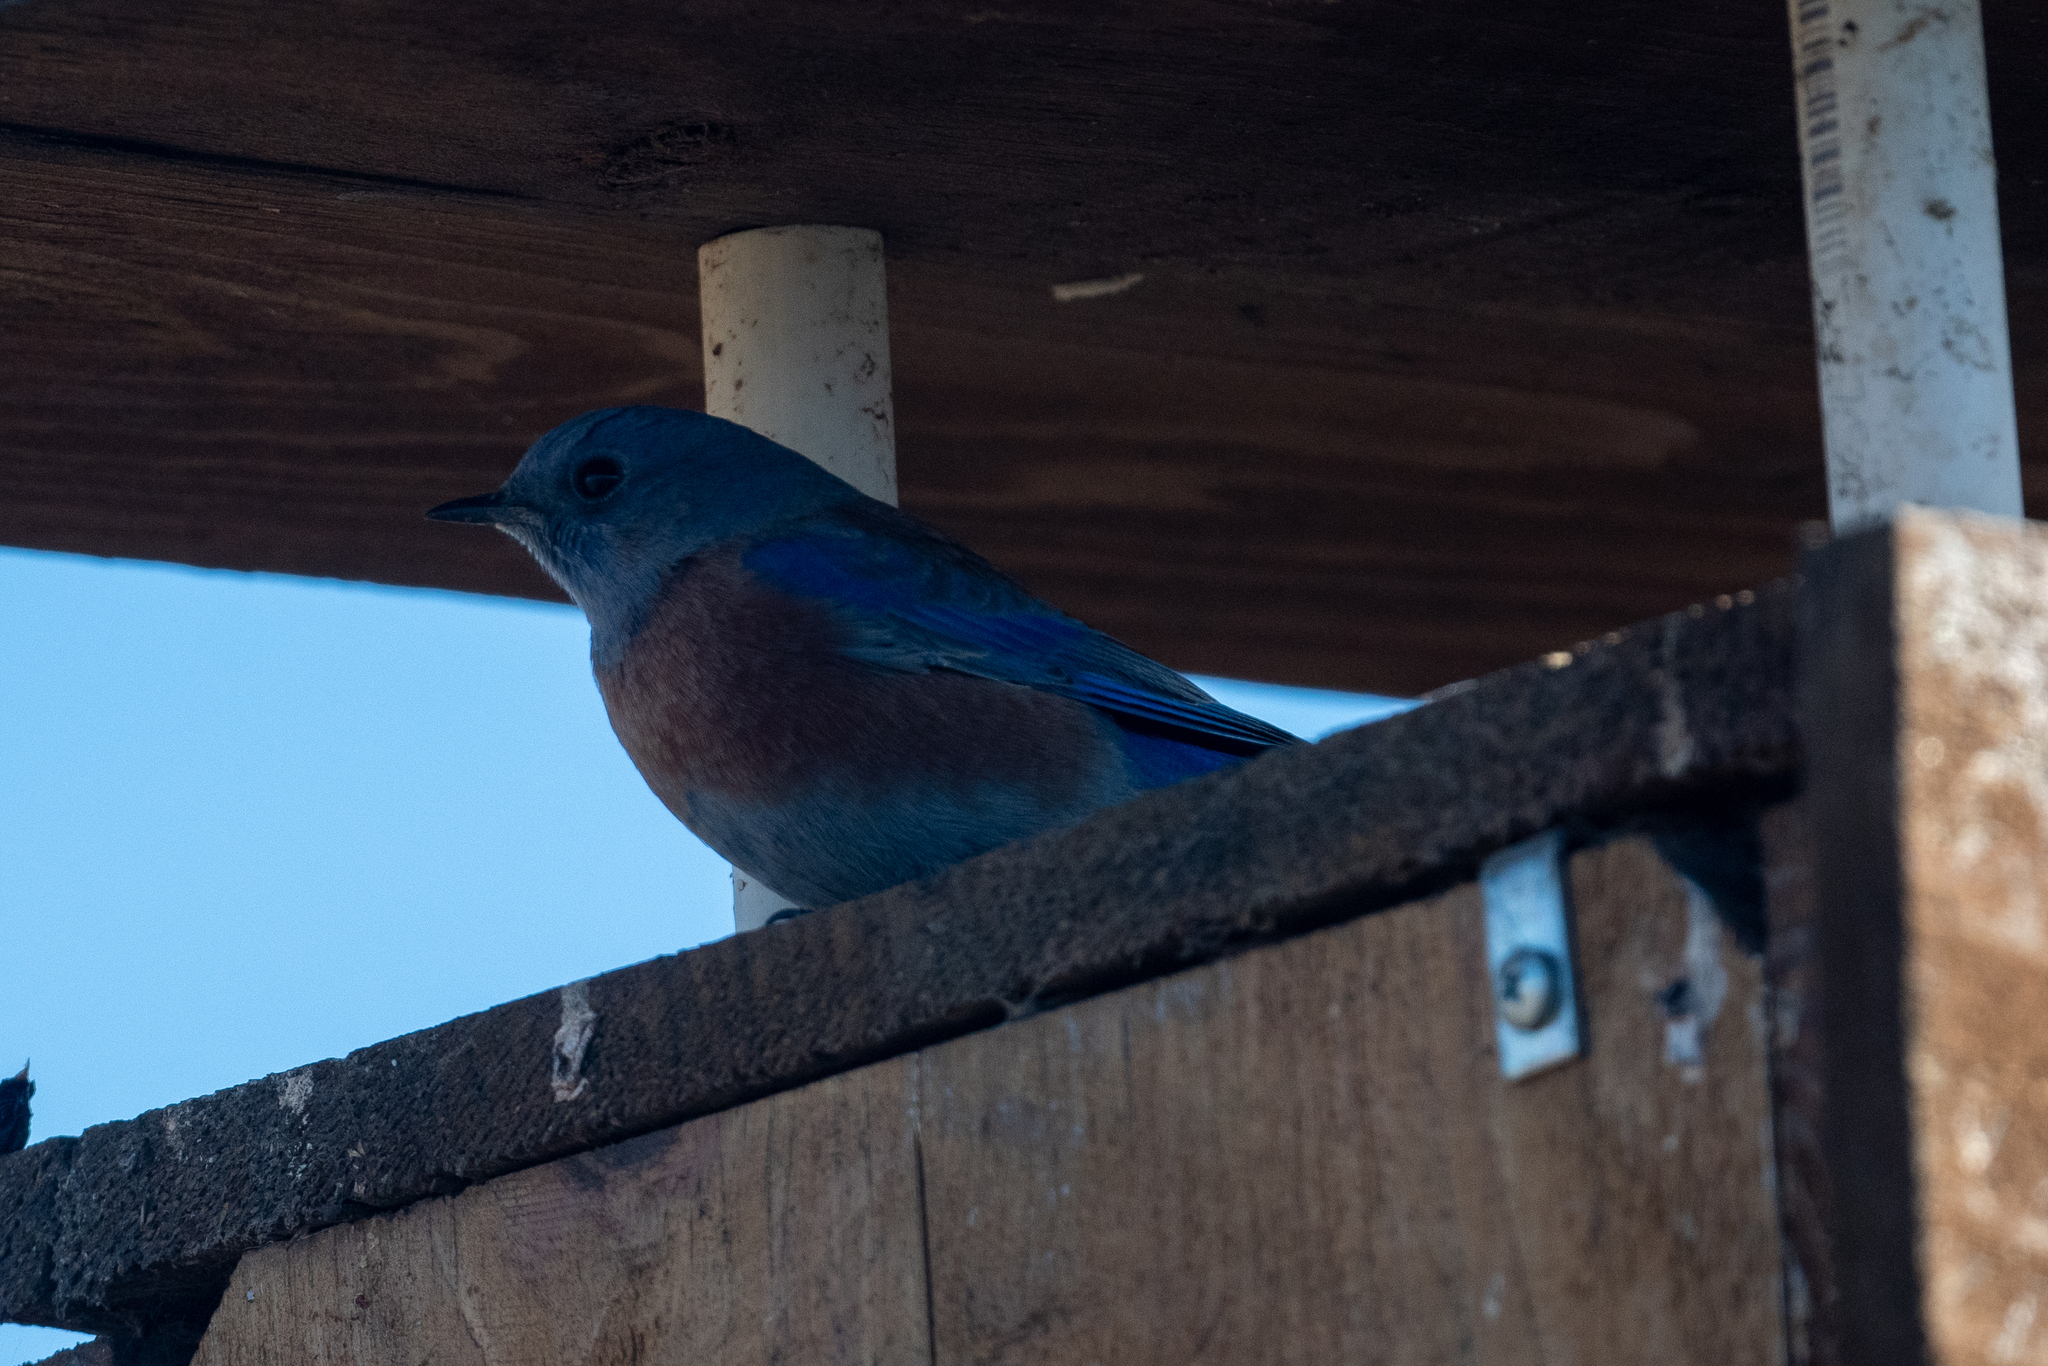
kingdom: Animalia
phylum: Chordata
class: Aves
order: Passeriformes
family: Turdidae
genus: Sialia
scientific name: Sialia mexicana
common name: Western bluebird
